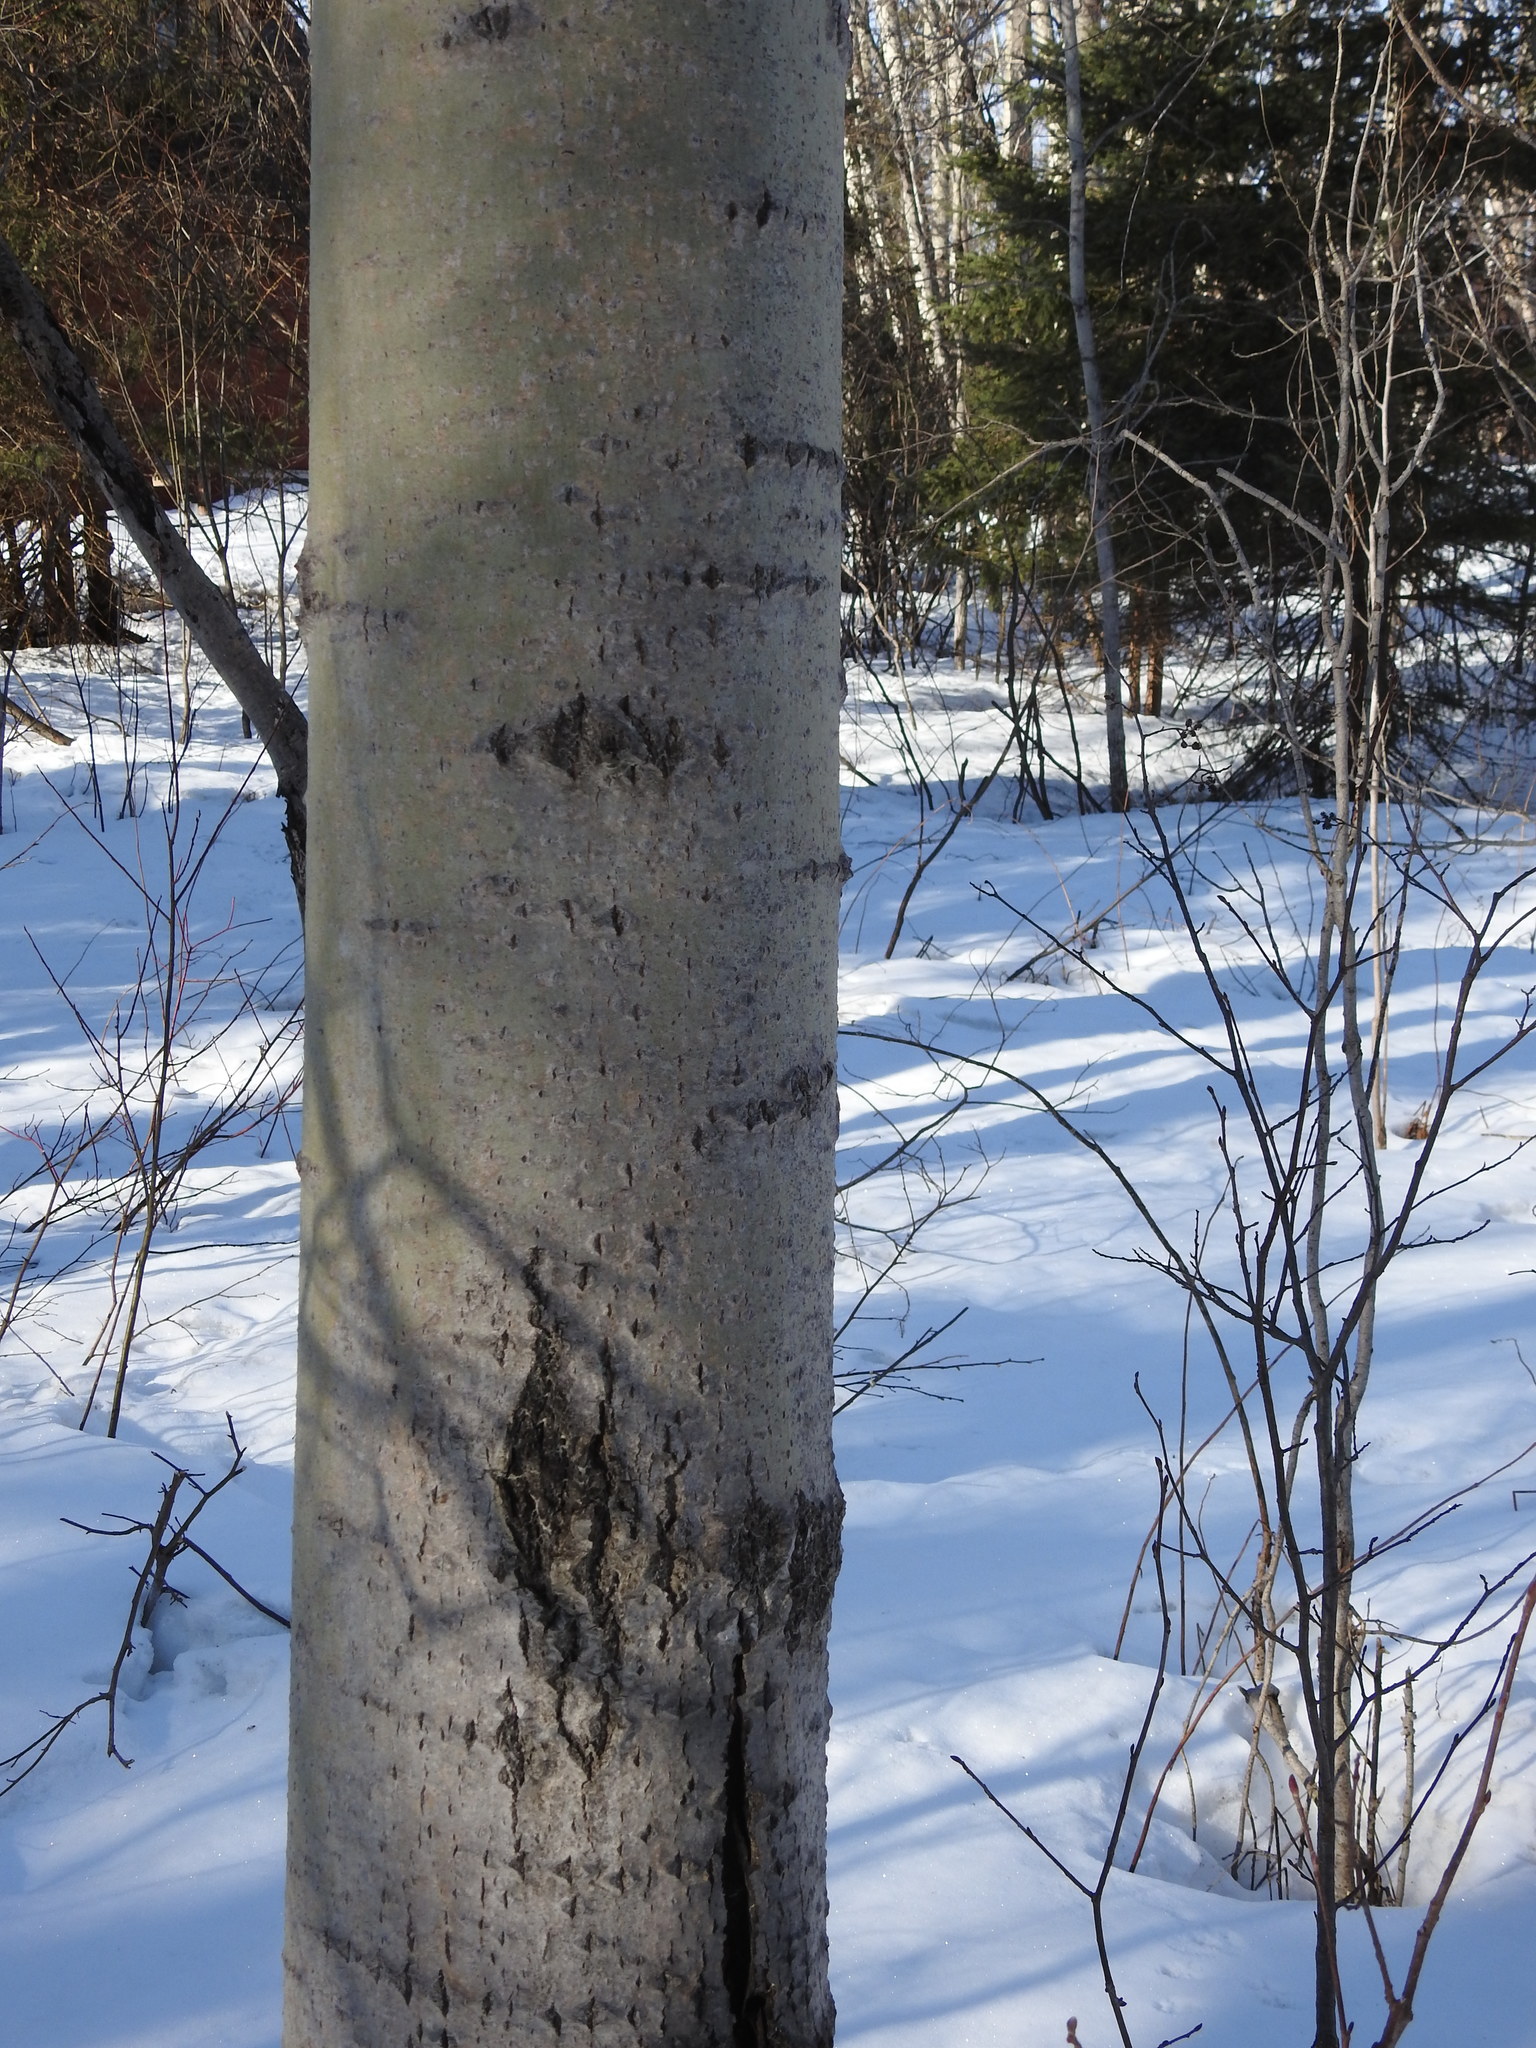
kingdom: Plantae
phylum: Tracheophyta
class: Magnoliopsida
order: Malpighiales
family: Salicaceae
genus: Populus
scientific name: Populus tremuloides
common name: Quaking aspen
